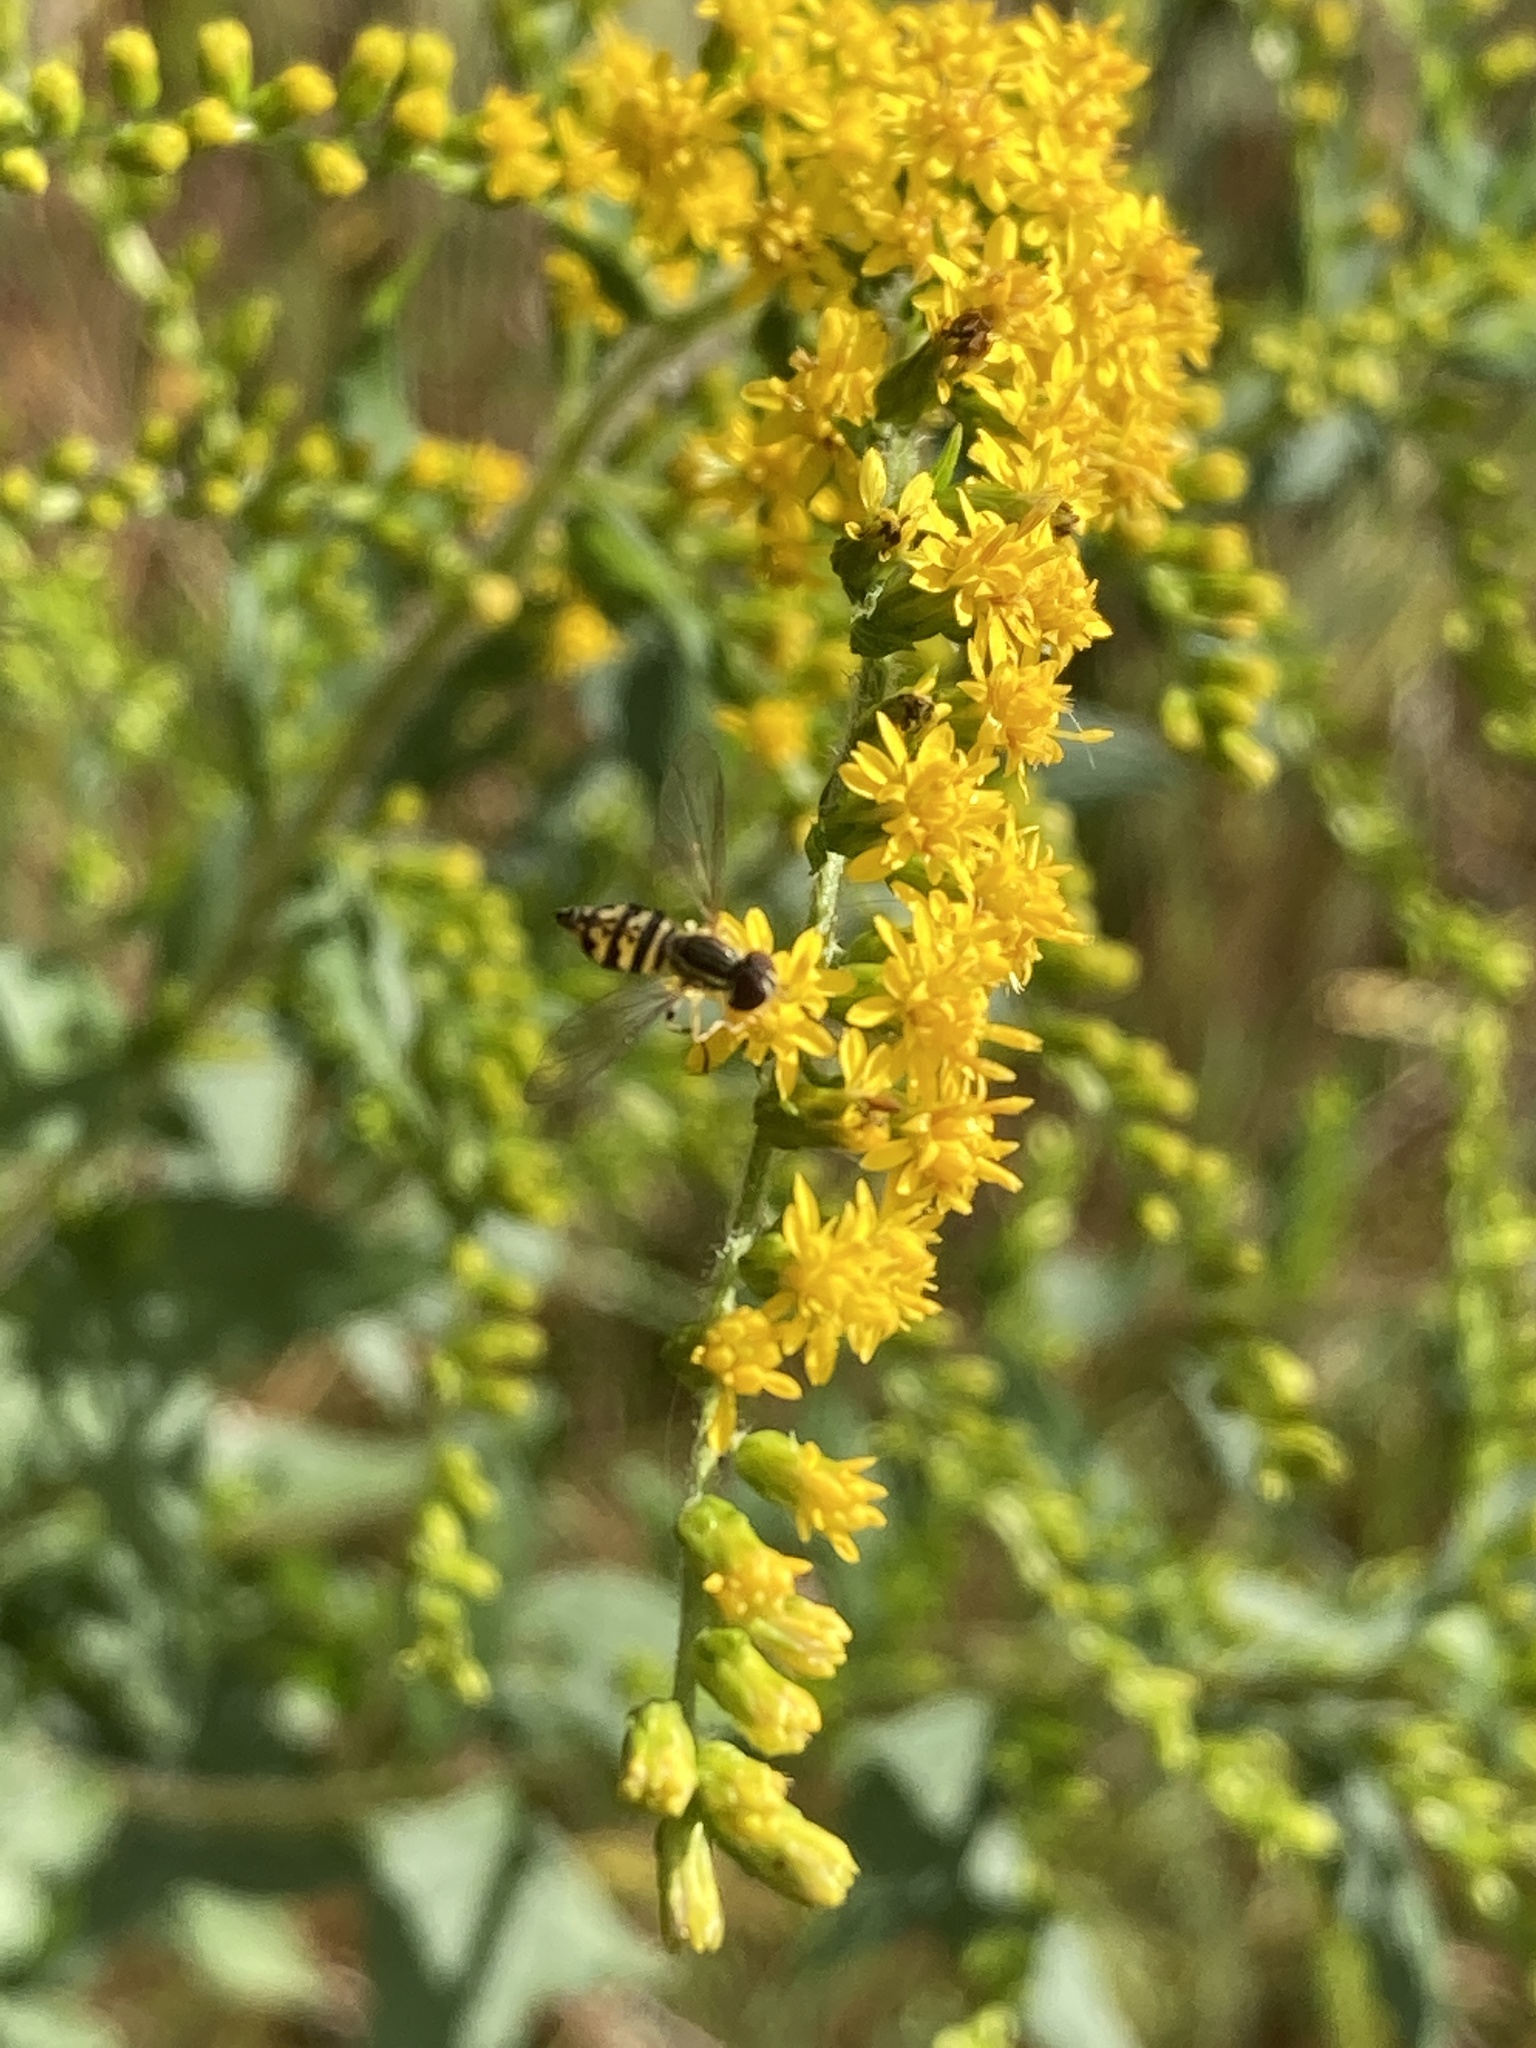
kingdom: Animalia
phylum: Arthropoda
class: Insecta
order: Diptera
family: Syrphidae
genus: Toxomerus
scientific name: Toxomerus geminatus
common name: Eastern calligrapher
